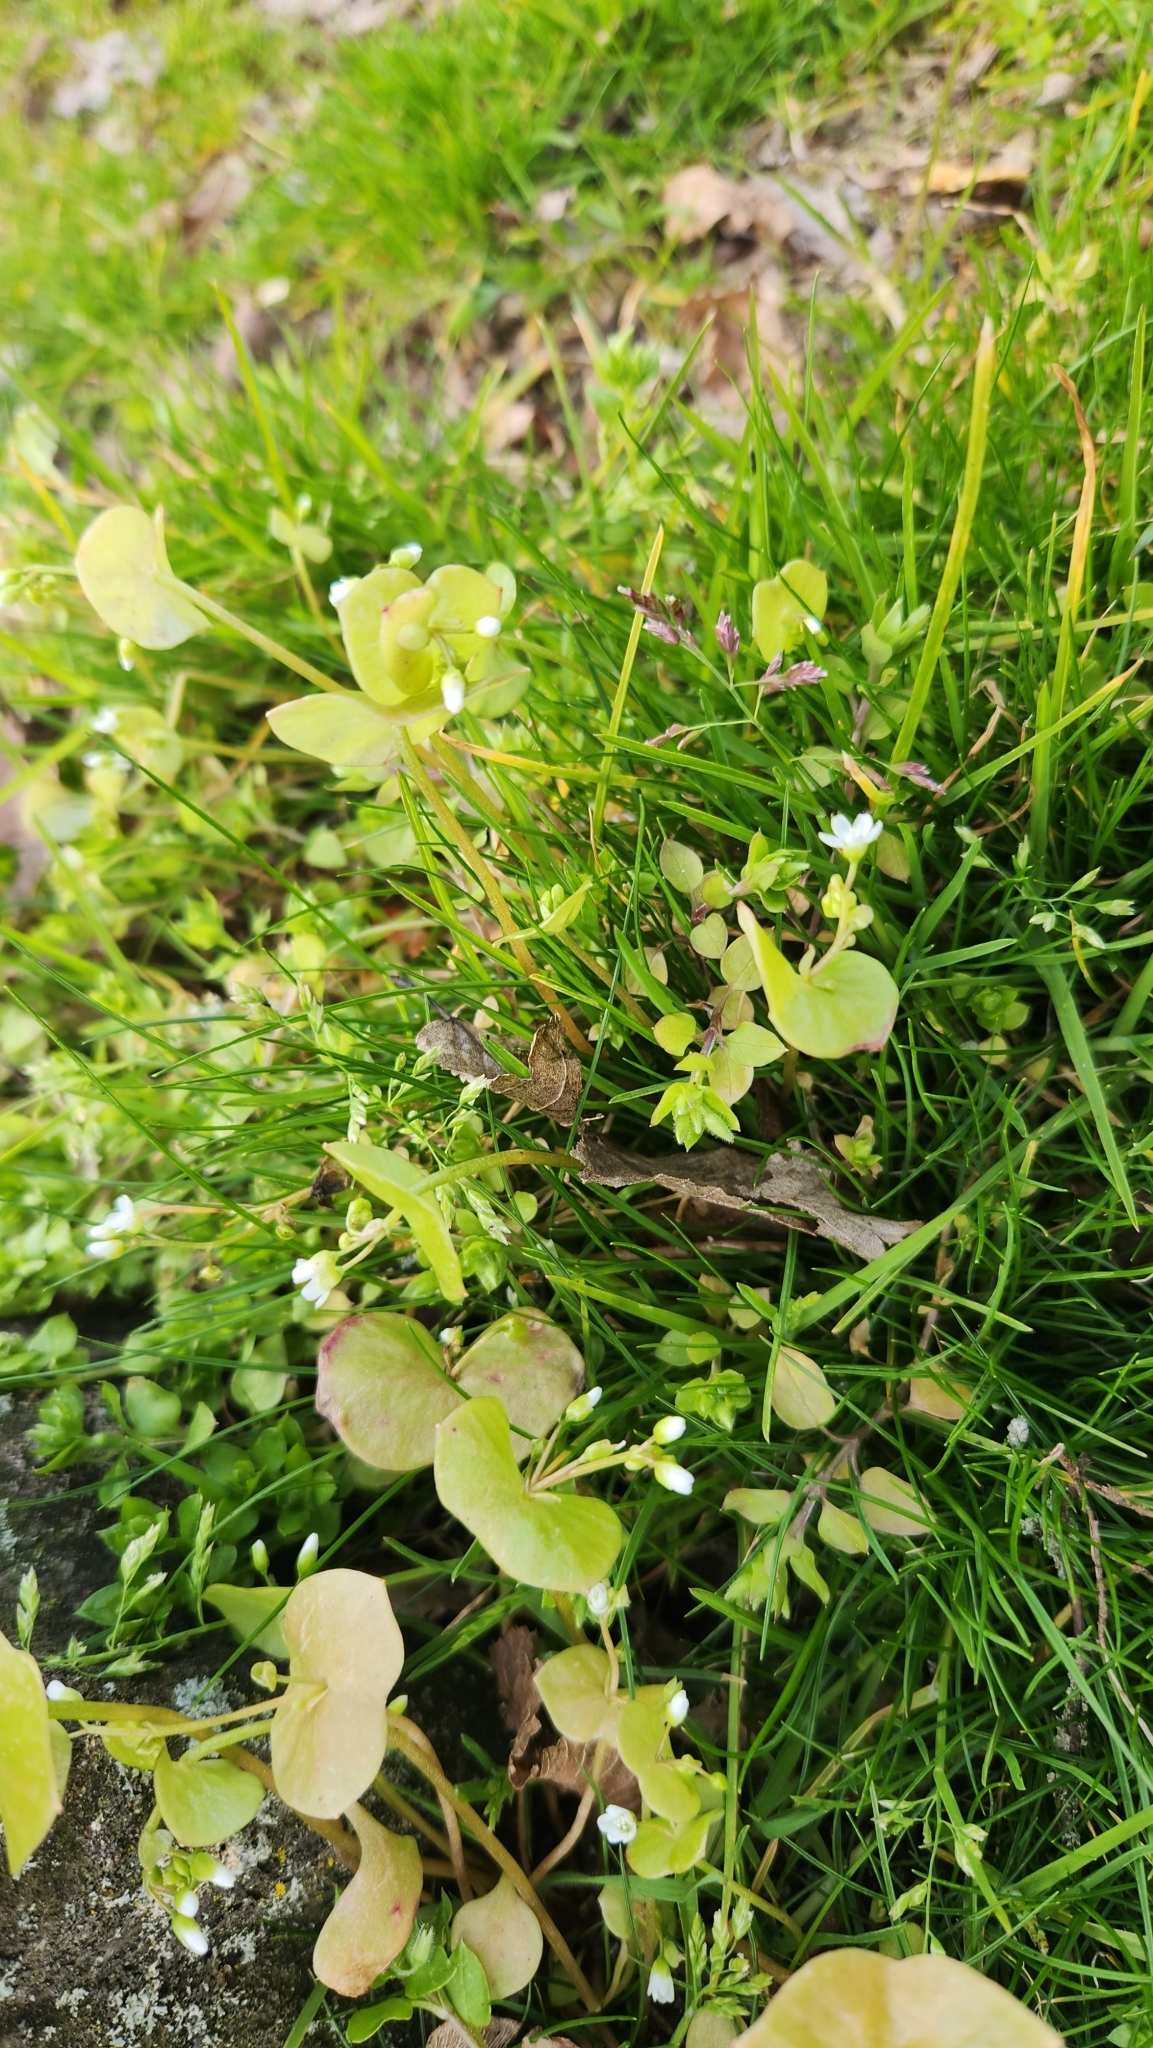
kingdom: Plantae
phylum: Tracheophyta
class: Magnoliopsida
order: Caryophyllales
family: Montiaceae
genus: Claytonia
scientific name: Claytonia perfoliata
